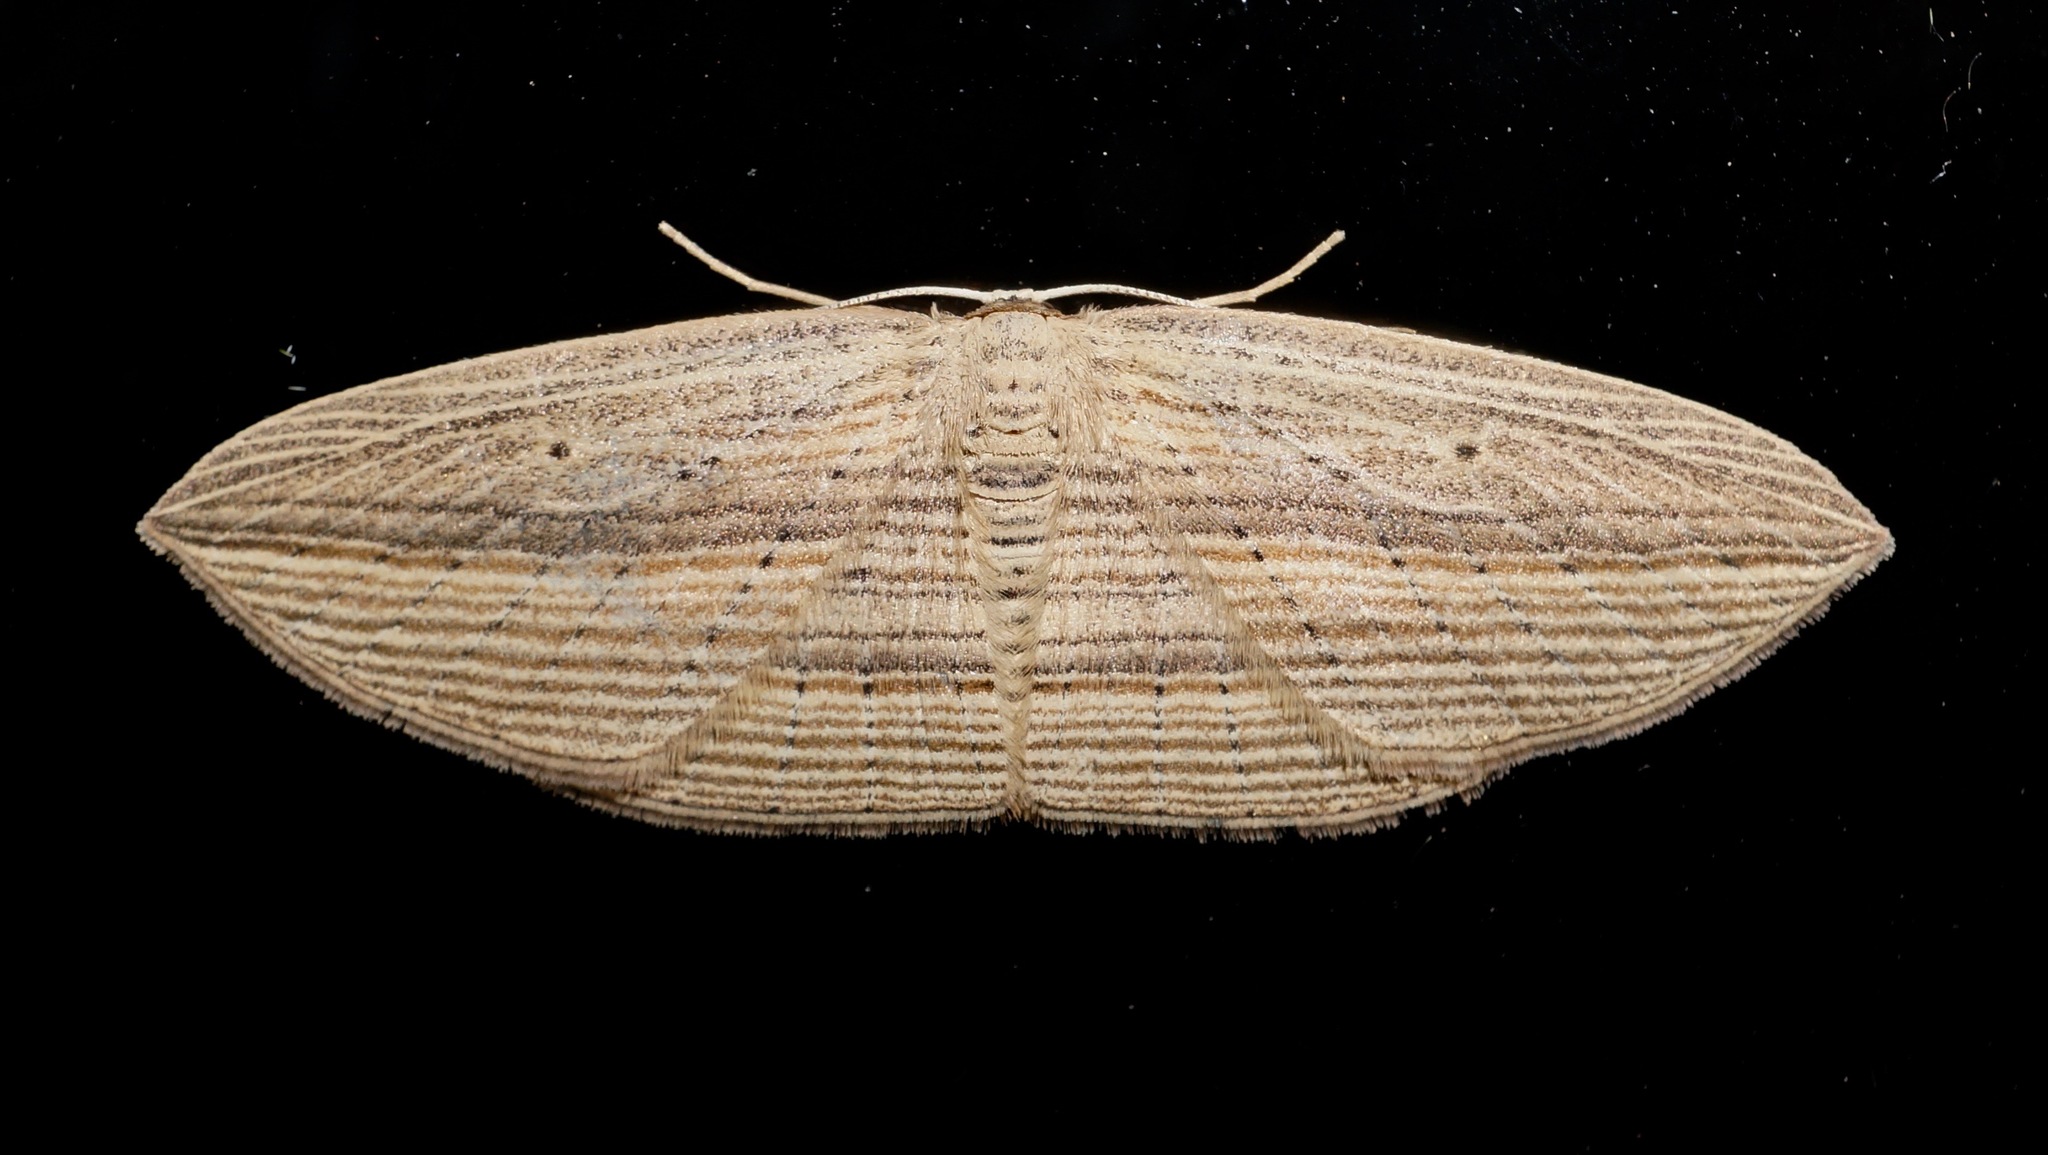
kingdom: Animalia
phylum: Arthropoda
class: Insecta
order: Lepidoptera
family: Geometridae
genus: Epiphryne
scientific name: Epiphryne verriculata
